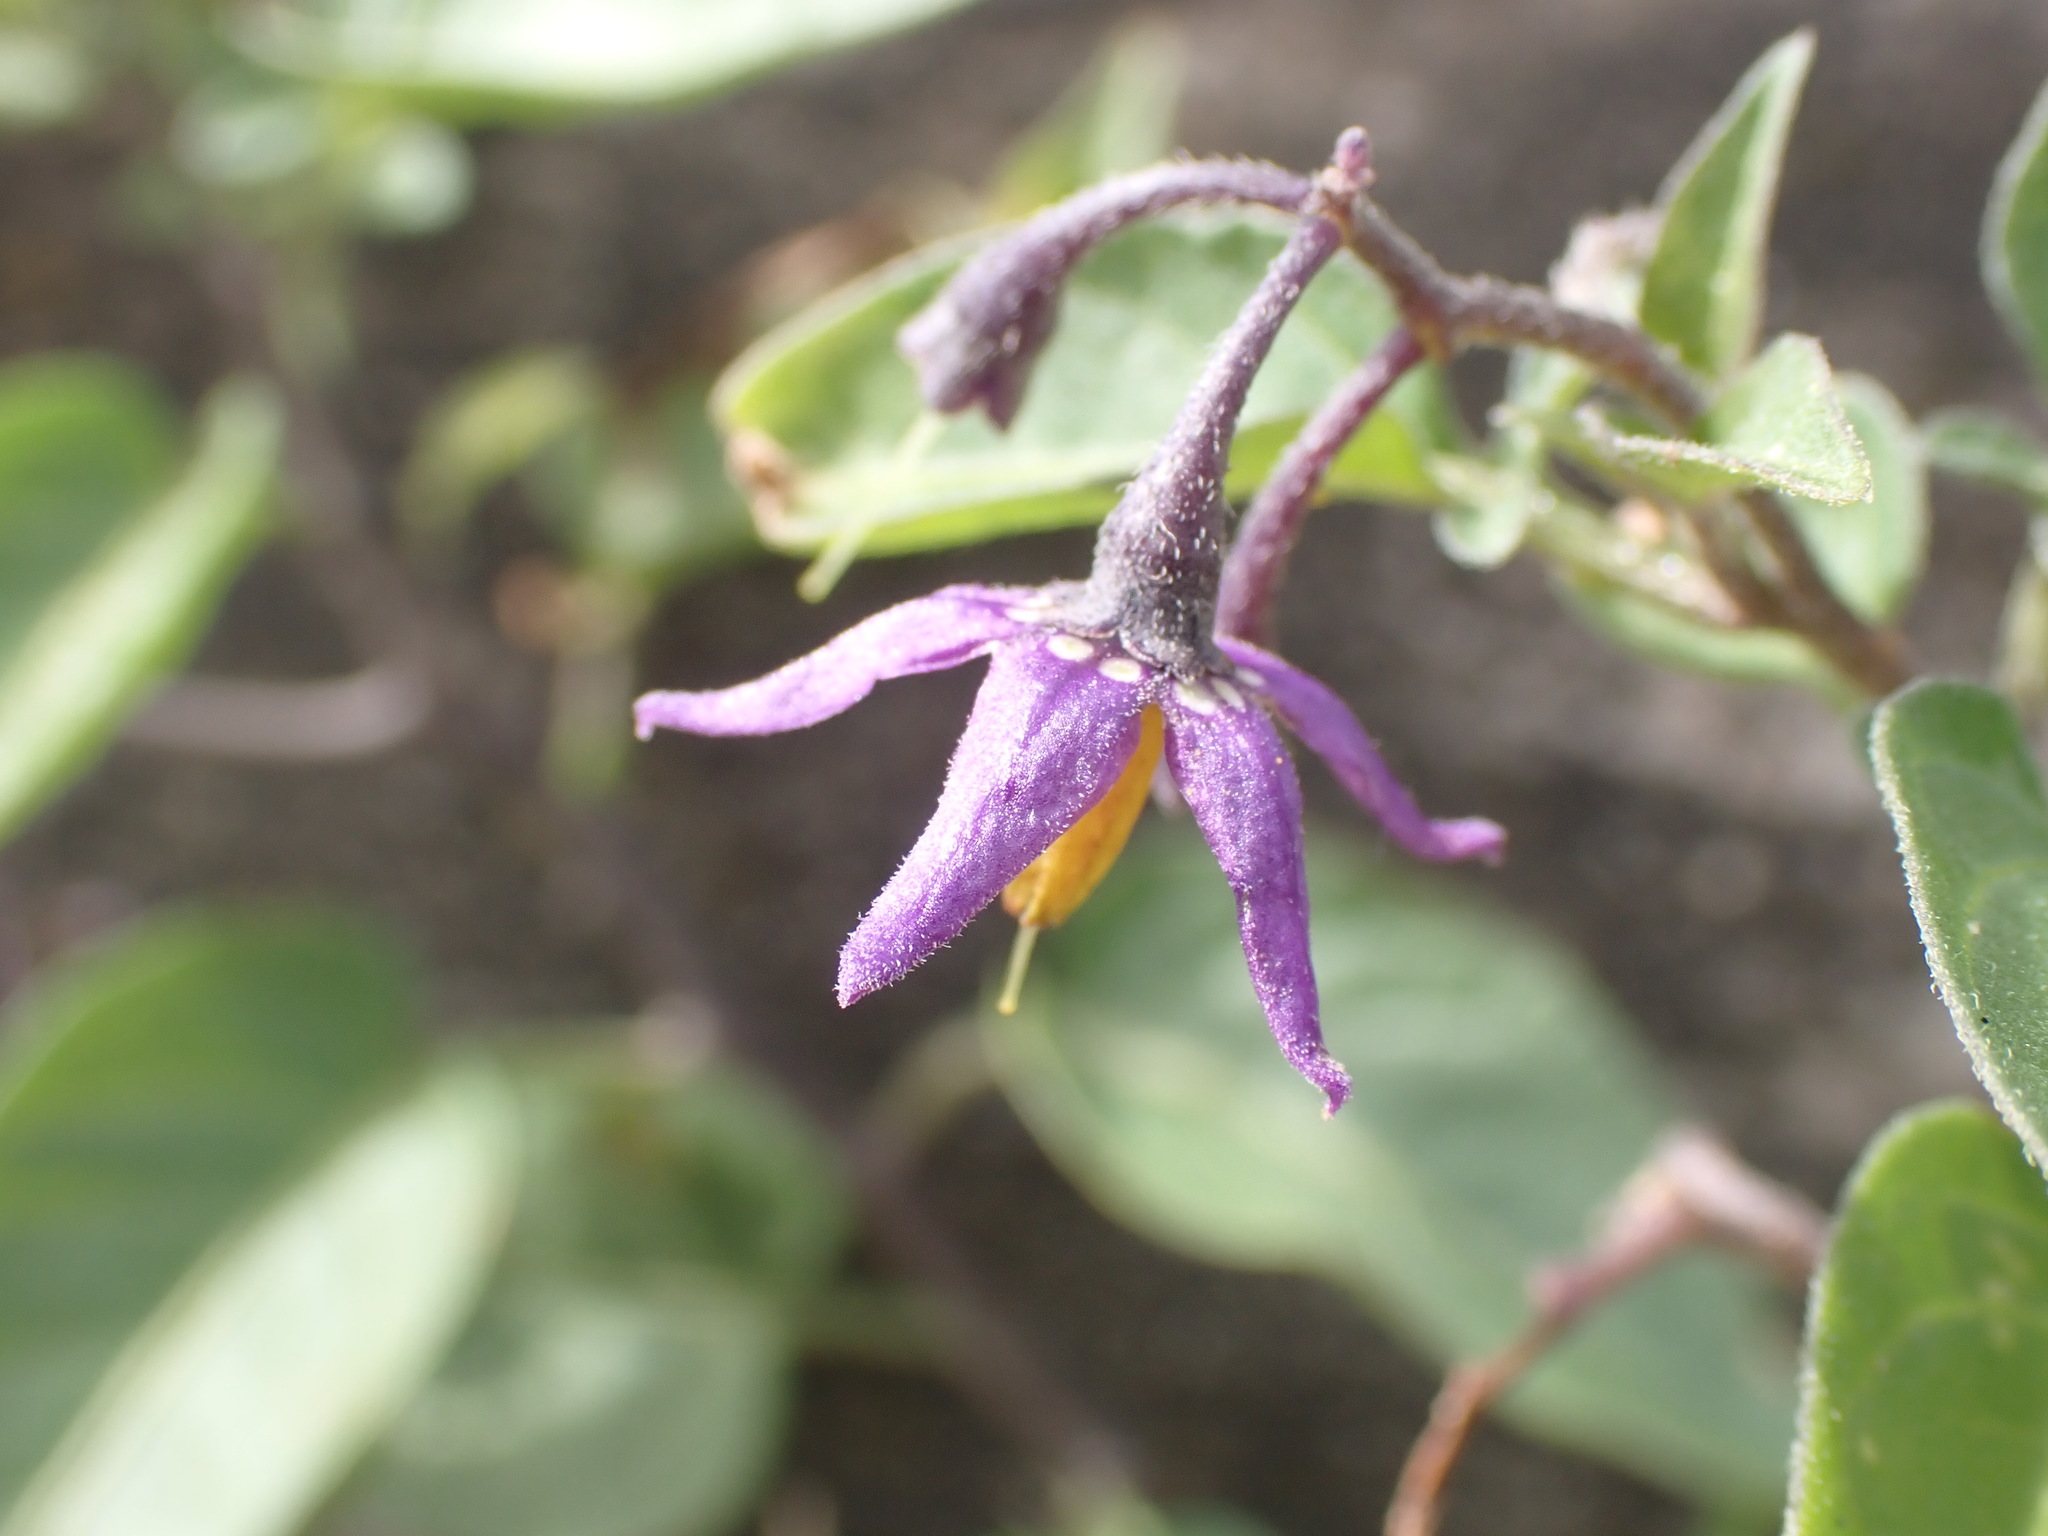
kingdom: Plantae
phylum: Tracheophyta
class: Magnoliopsida
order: Solanales
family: Solanaceae
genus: Solanum
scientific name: Solanum dulcamara
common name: Climbing nightshade
